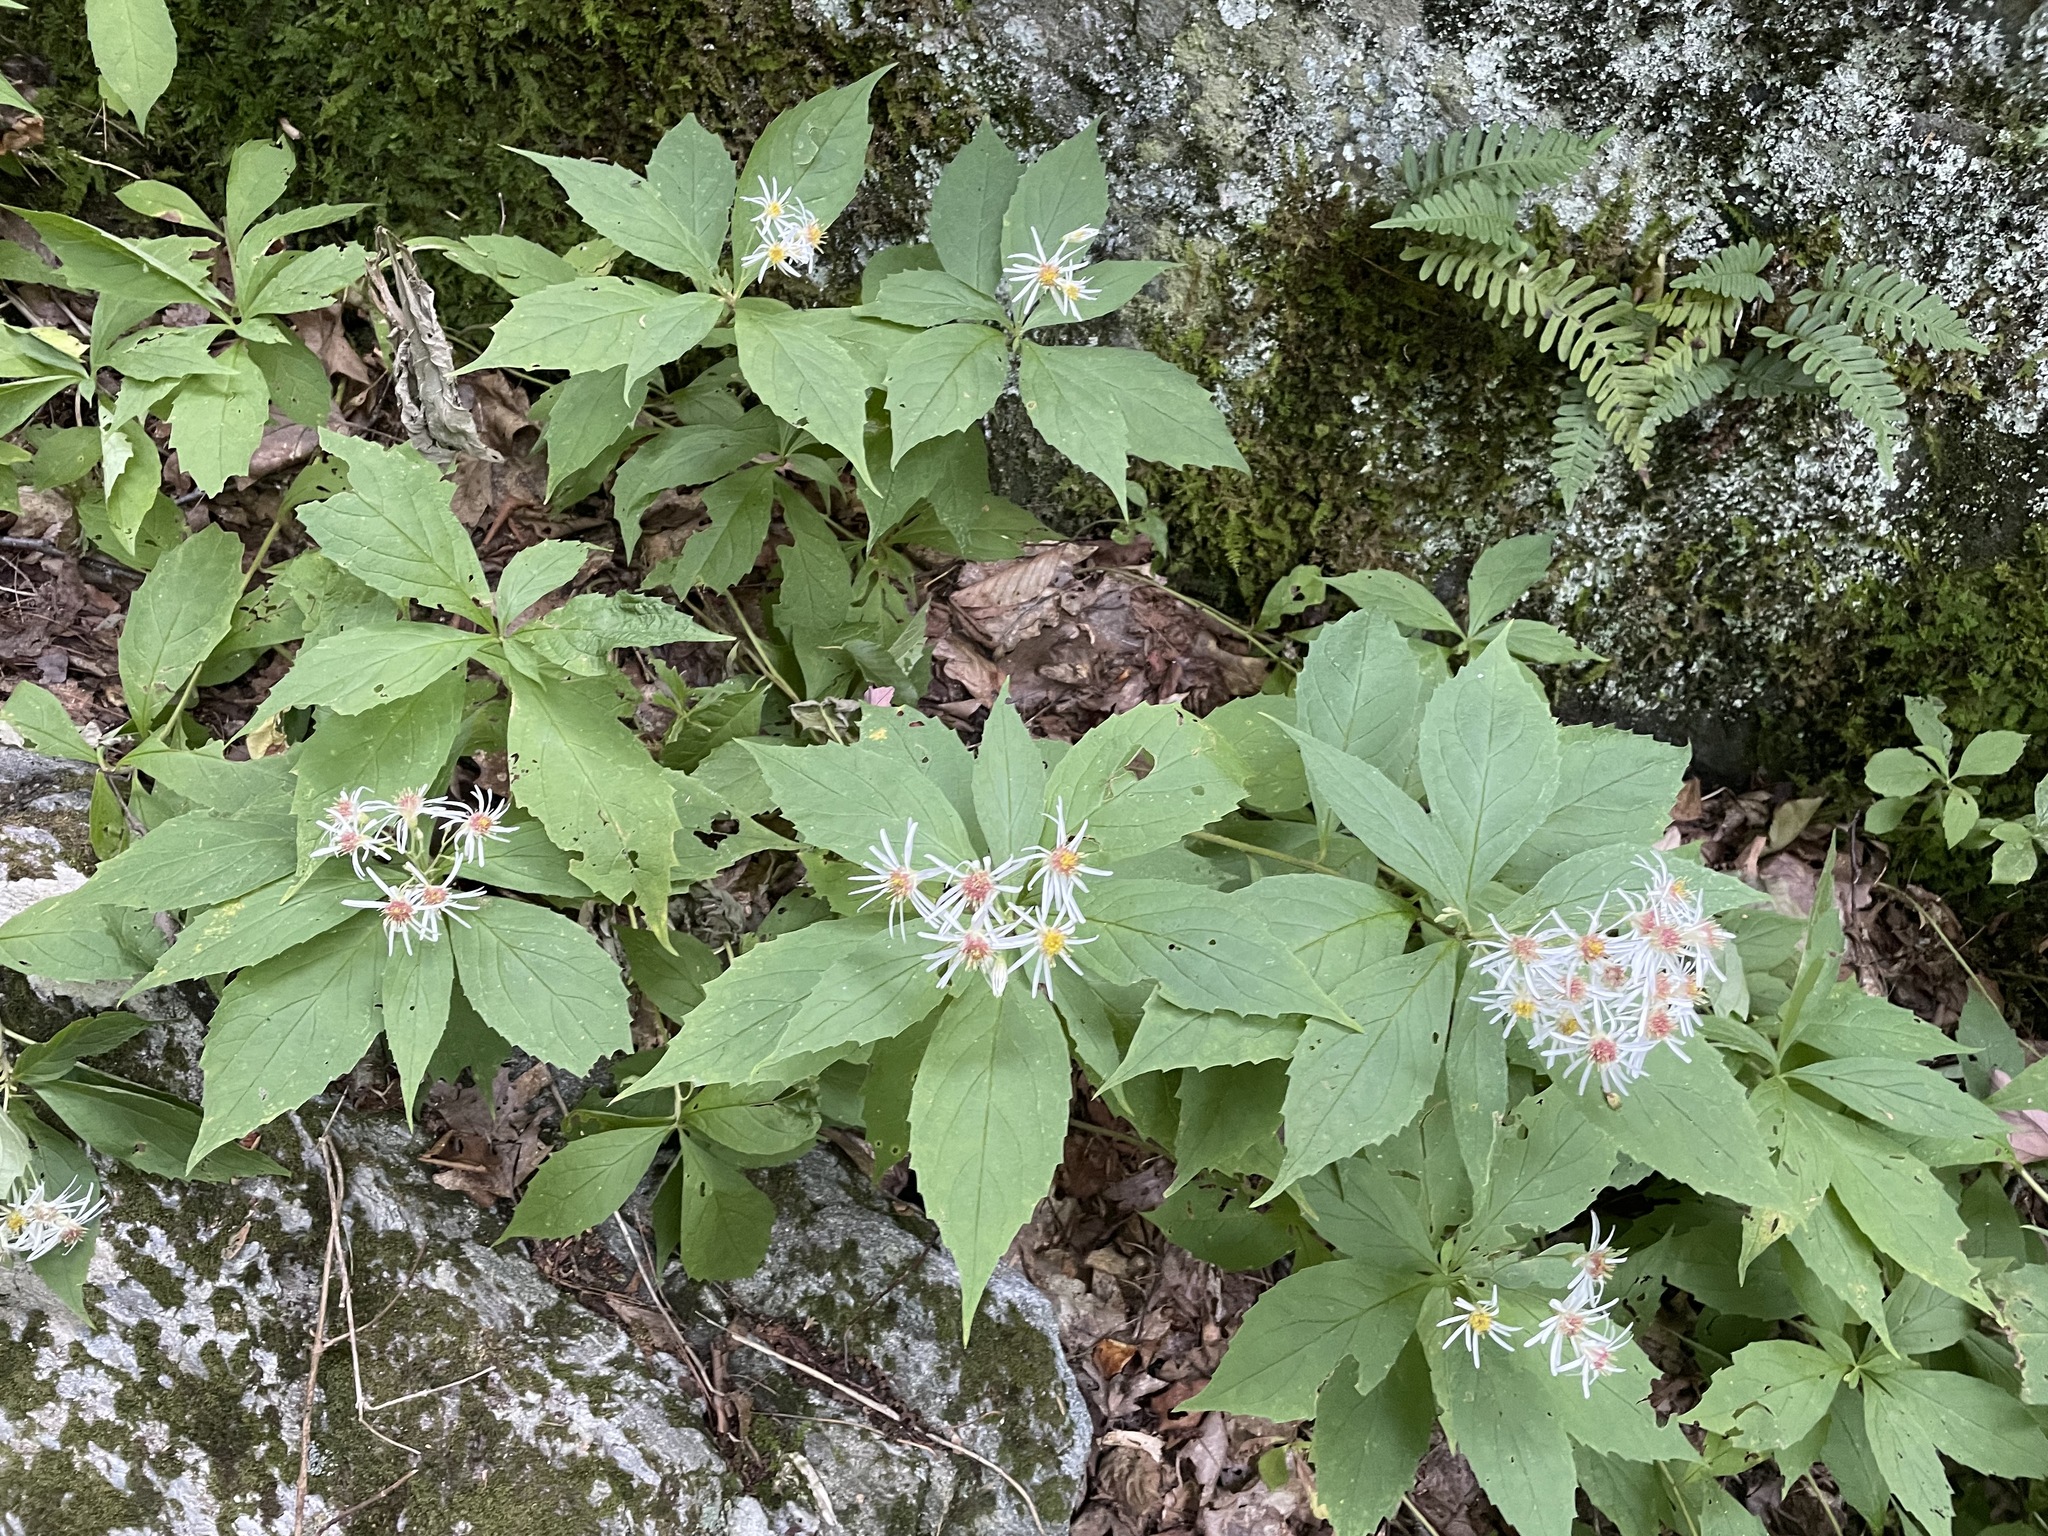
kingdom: Plantae
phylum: Tracheophyta
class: Magnoliopsida
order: Asterales
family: Asteraceae
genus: Oclemena
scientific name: Oclemena acuminata
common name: Mountain aster
